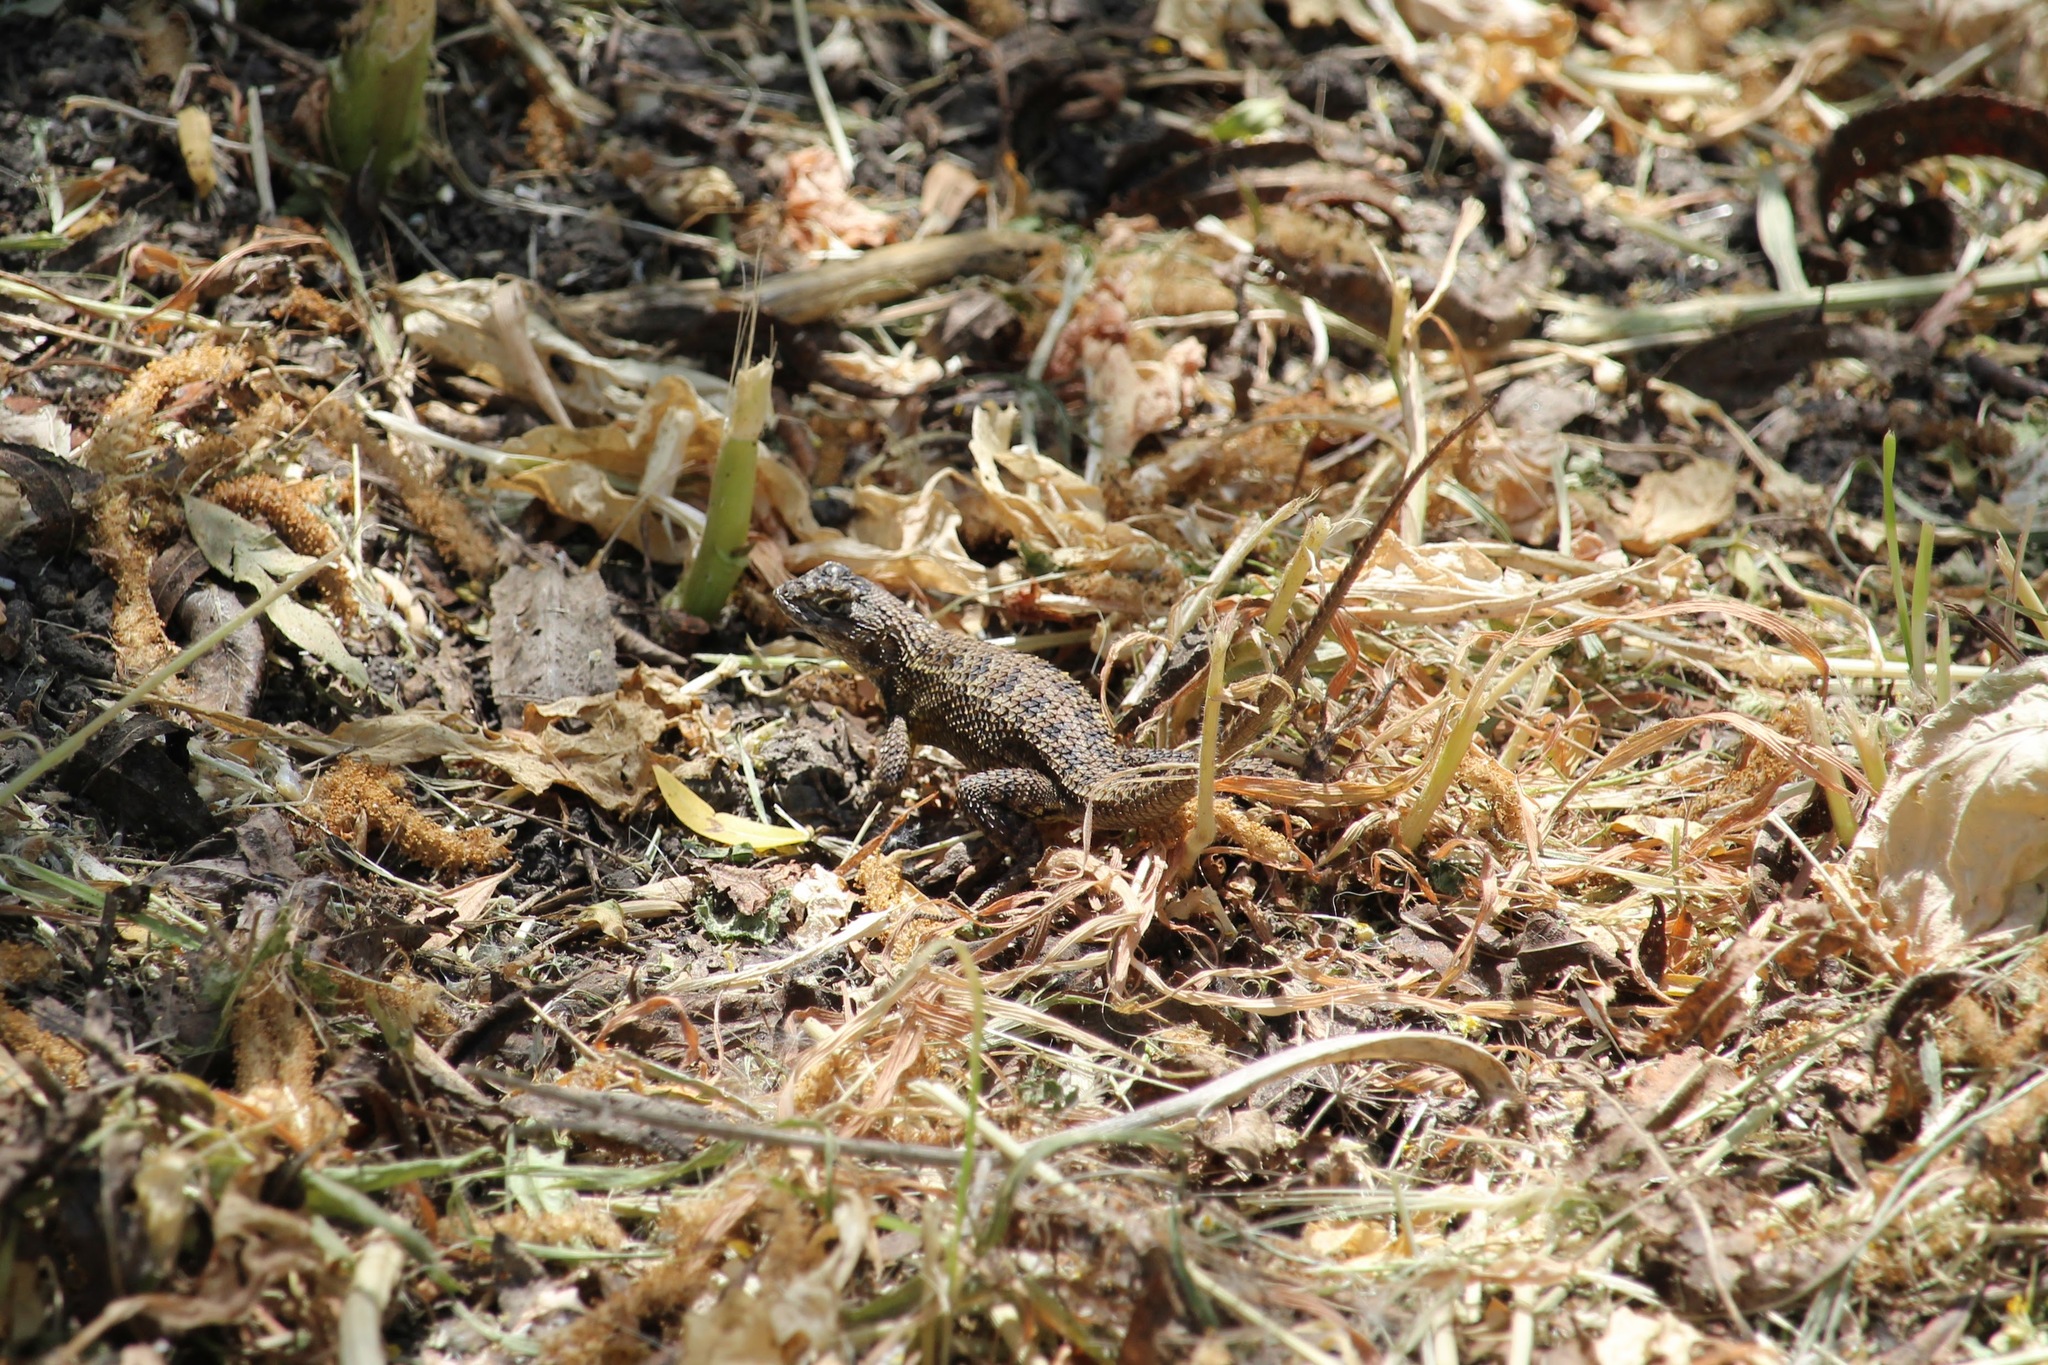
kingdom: Animalia
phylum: Chordata
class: Squamata
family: Phrynosomatidae
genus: Sceloporus
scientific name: Sceloporus occidentalis
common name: Western fence lizard
